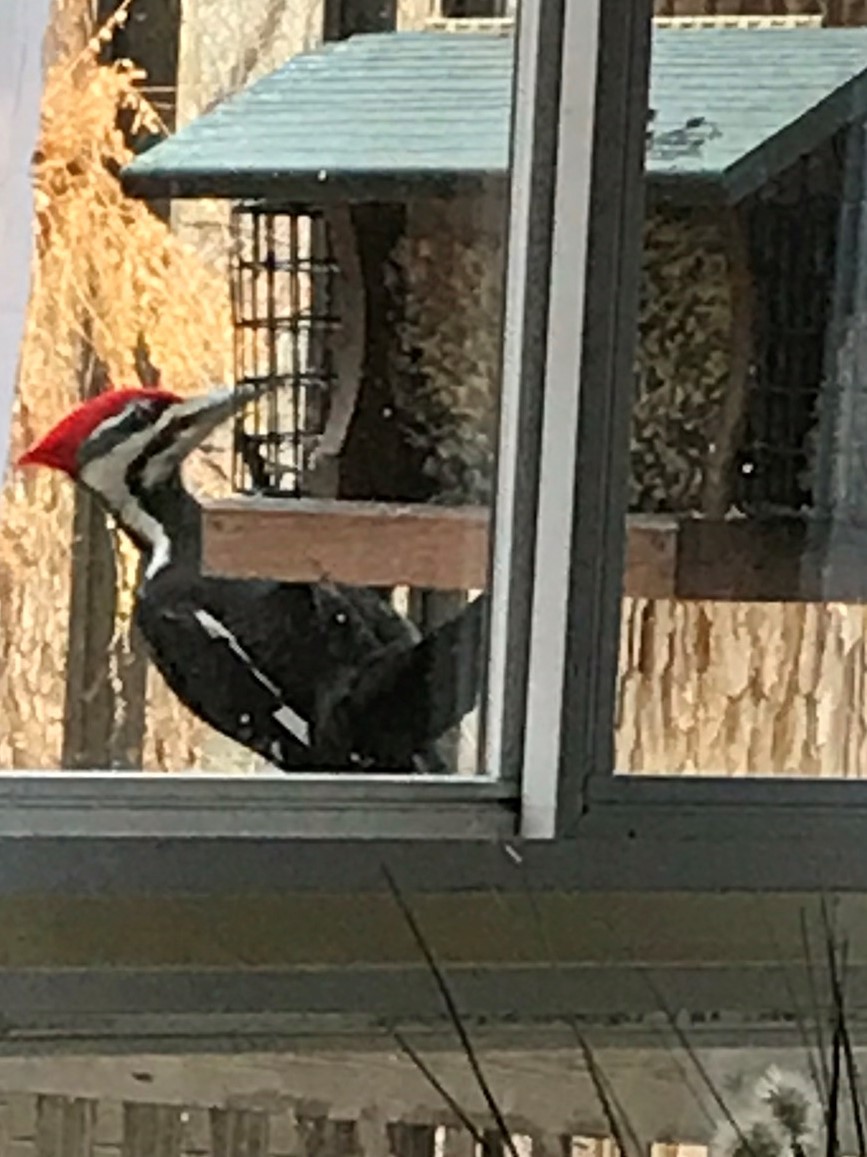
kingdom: Animalia
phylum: Chordata
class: Aves
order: Piciformes
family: Picidae
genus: Dryocopus
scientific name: Dryocopus pileatus
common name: Pileated woodpecker
